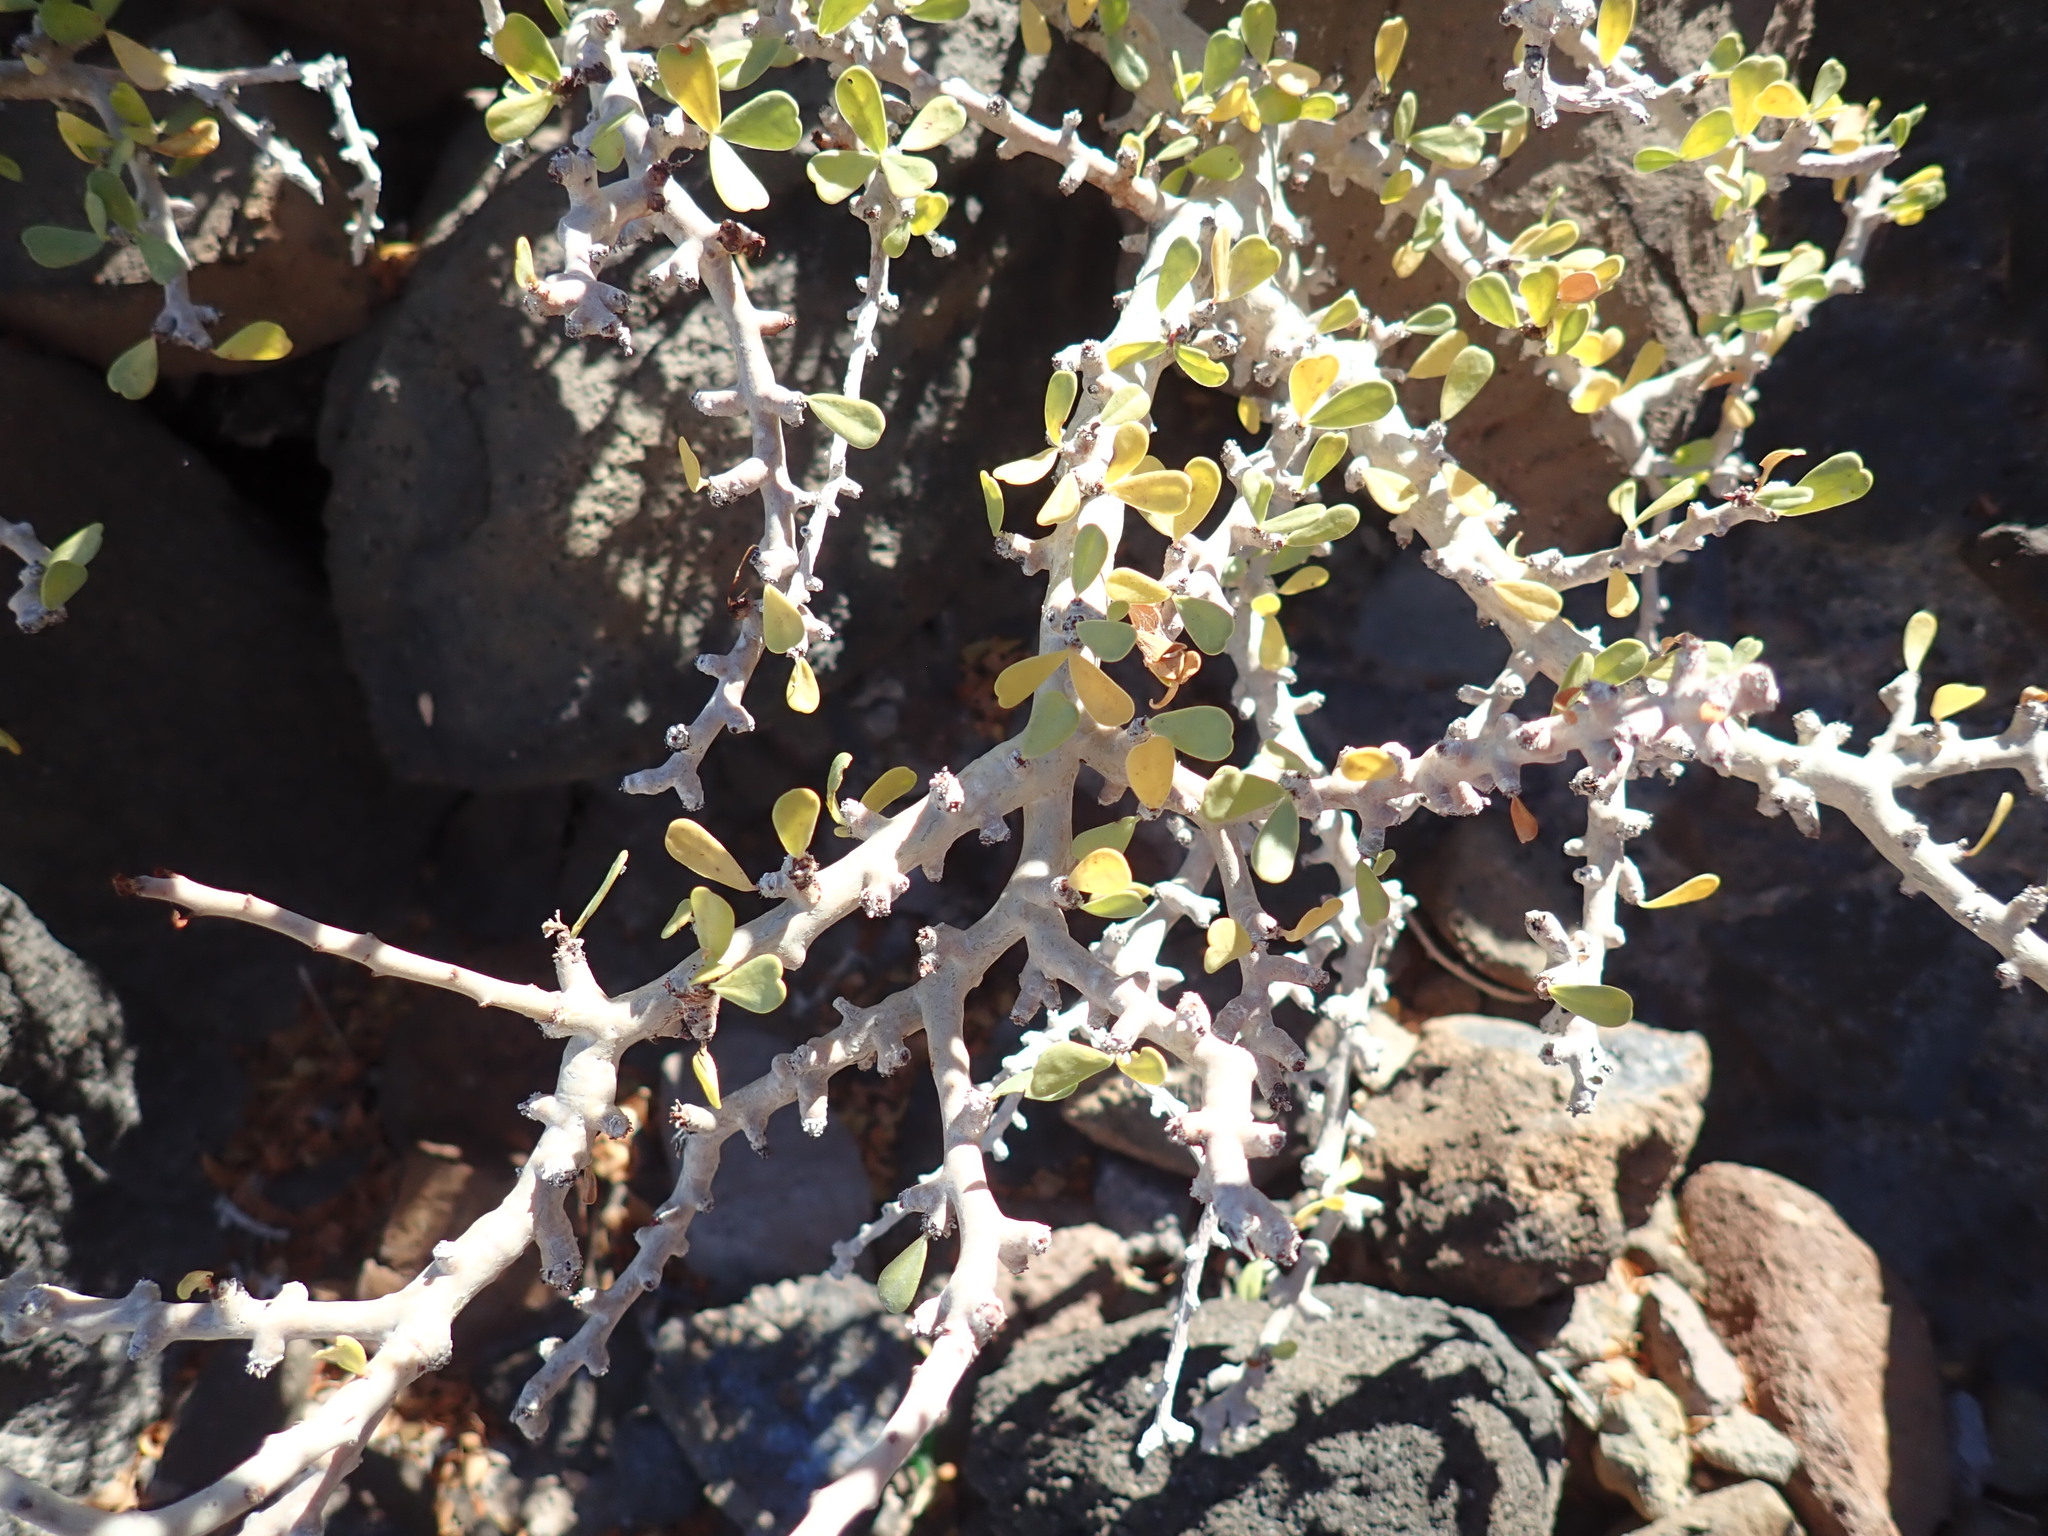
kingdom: Plantae
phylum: Tracheophyta
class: Magnoliopsida
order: Malpighiales
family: Euphorbiaceae
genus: Jatropha
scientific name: Jatropha cuneata
